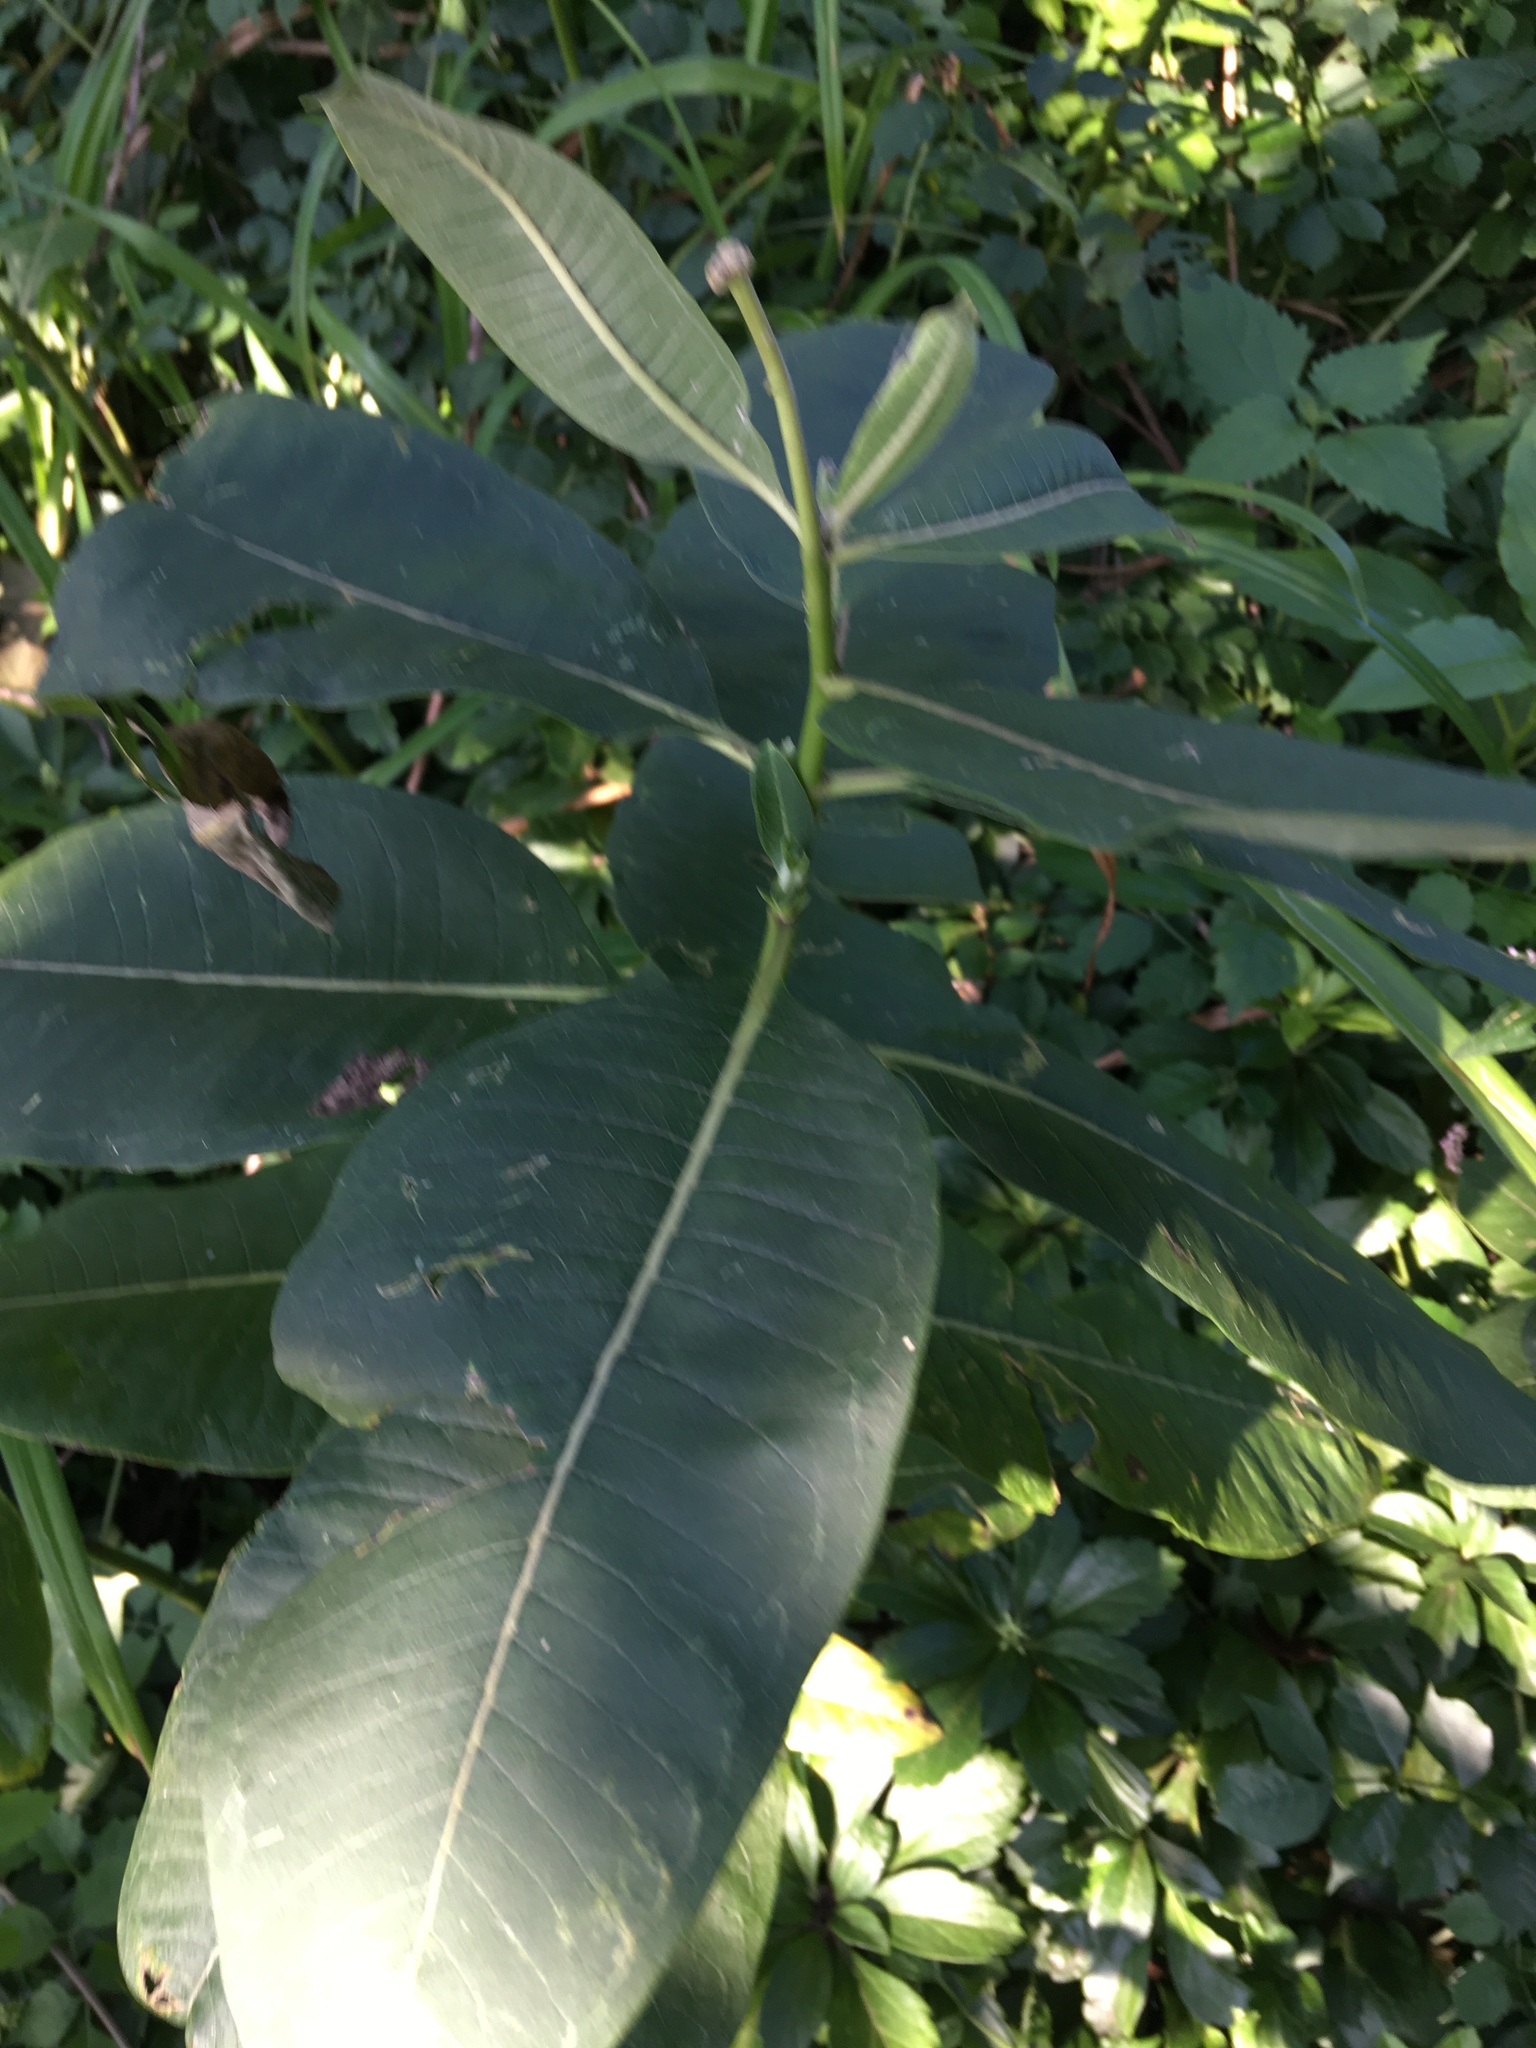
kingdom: Plantae
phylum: Tracheophyta
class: Magnoliopsida
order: Gentianales
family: Apocynaceae
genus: Asclepias
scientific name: Asclepias syriaca
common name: Common milkweed
